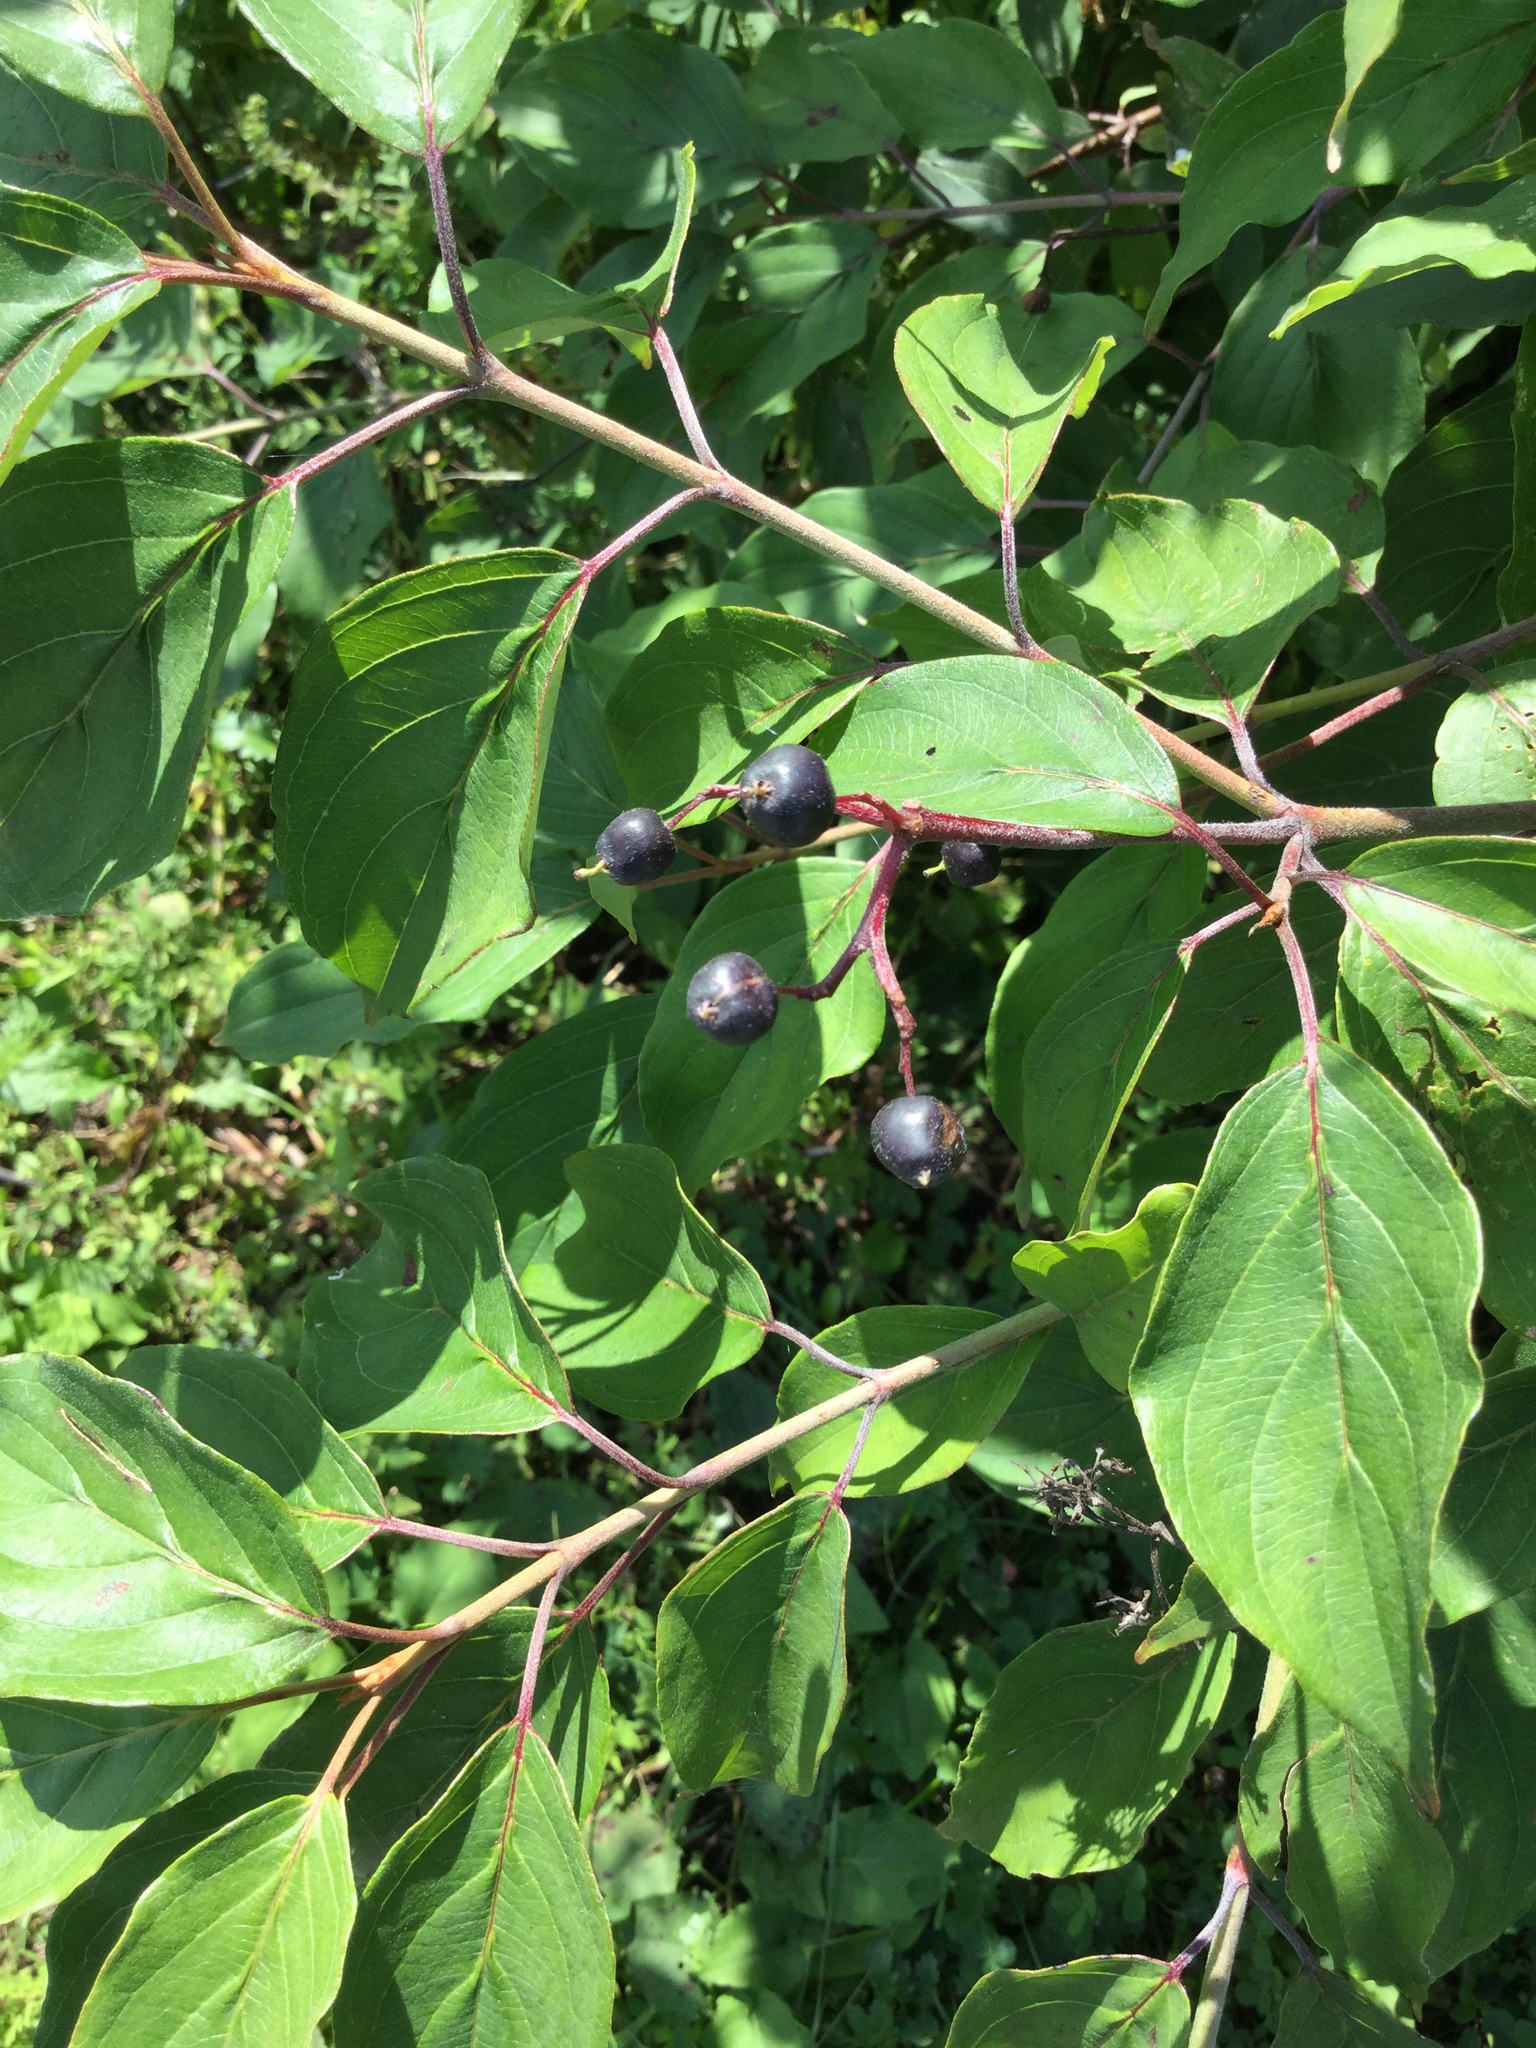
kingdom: Plantae
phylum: Tracheophyta
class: Magnoliopsida
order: Cornales
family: Cornaceae
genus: Cornus
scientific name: Cornus amomum
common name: Silky dogwood
